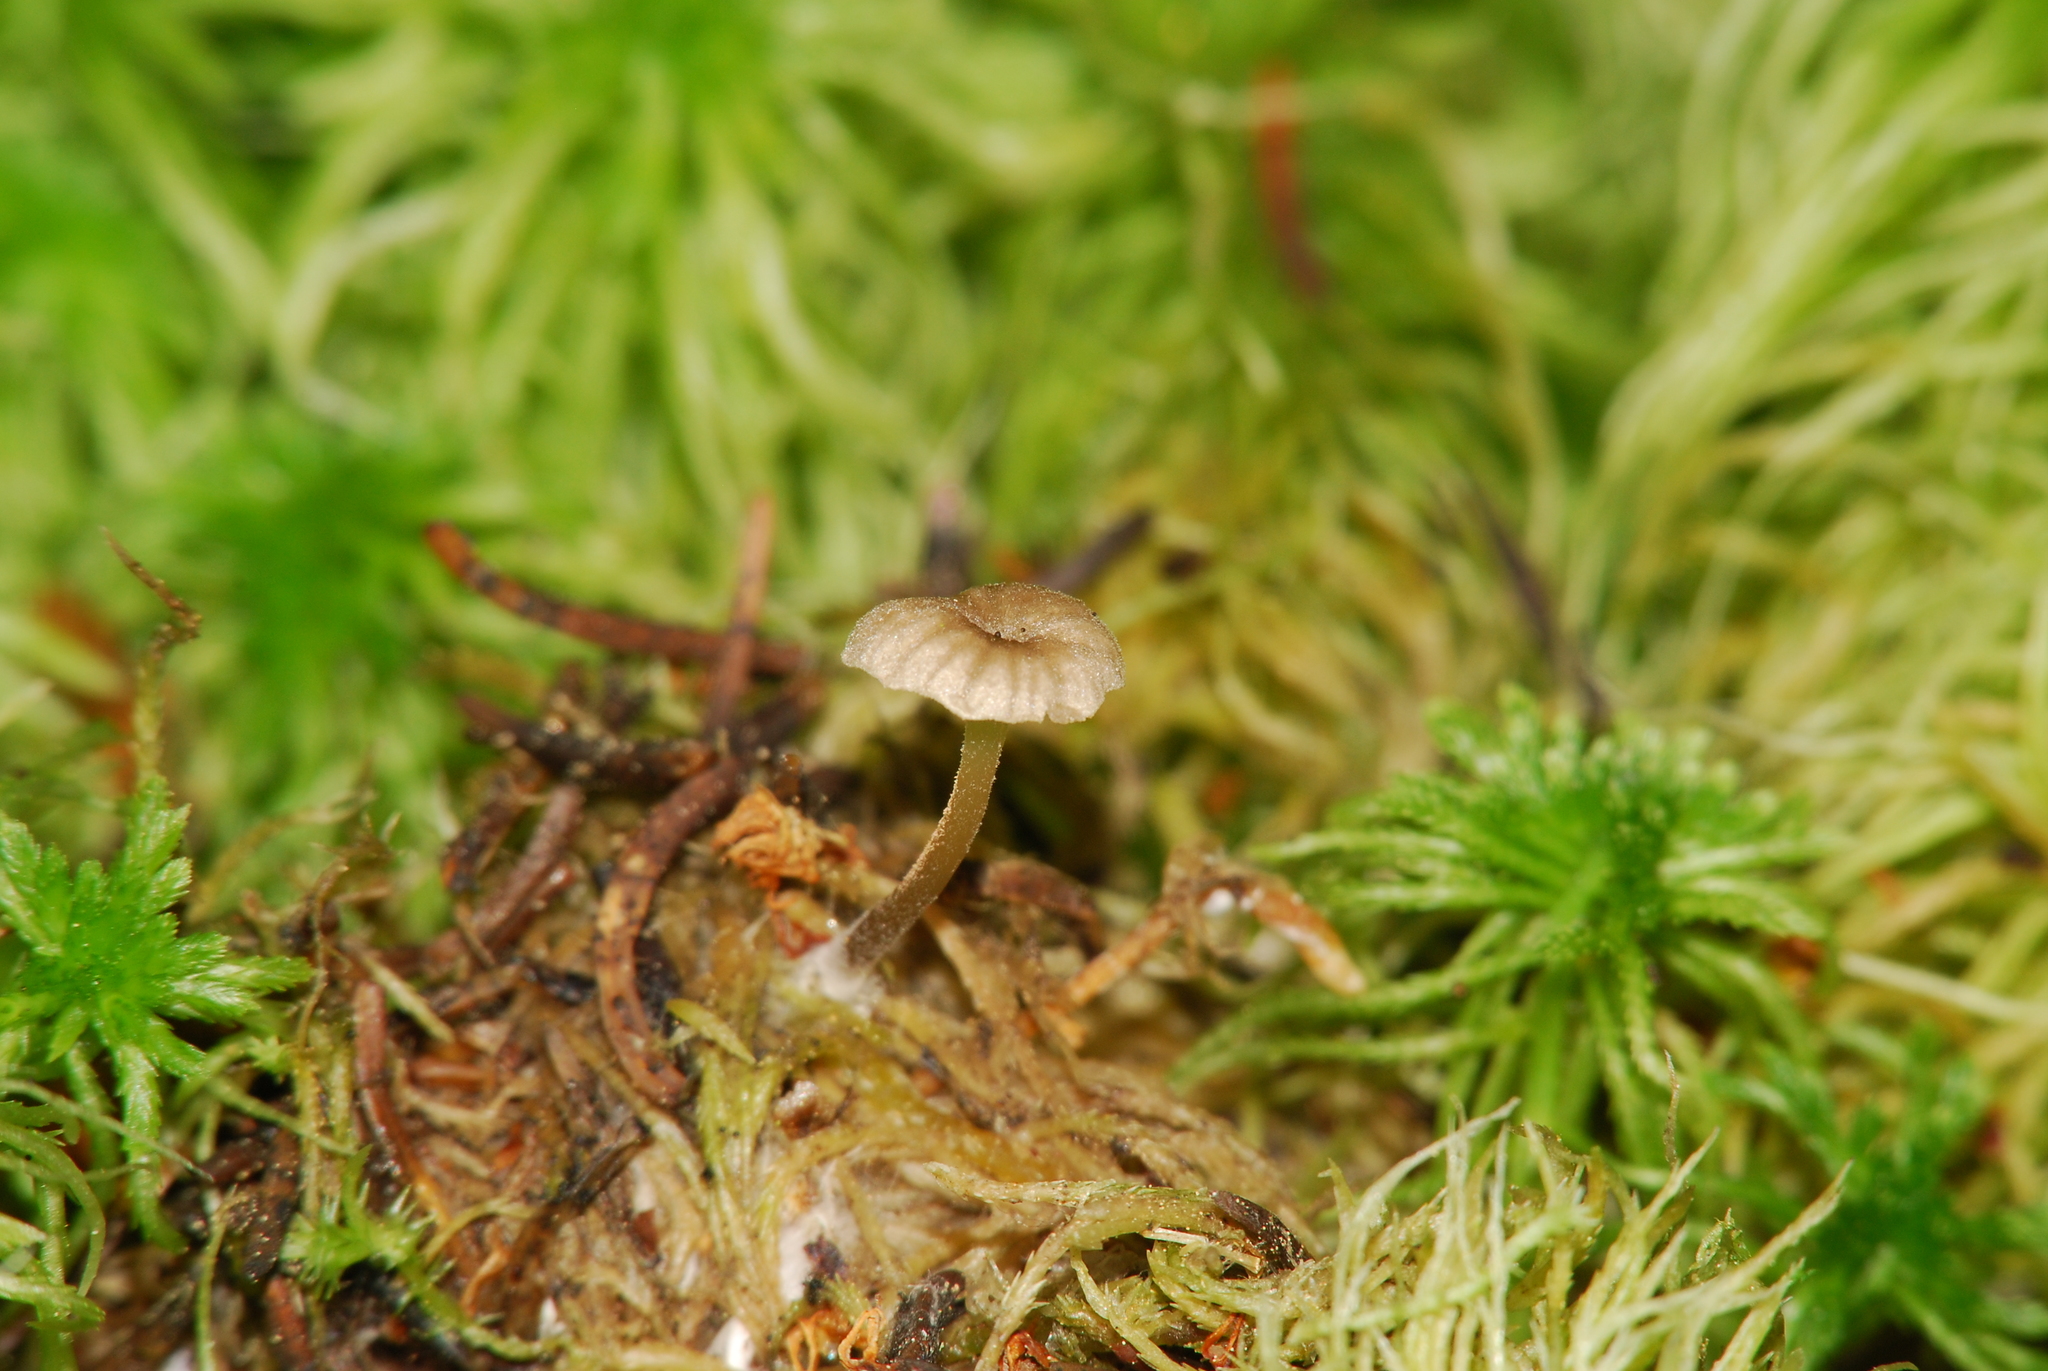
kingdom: Fungi
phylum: Basidiomycota
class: Agaricomycetes
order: Agaricales
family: Hygrophoraceae
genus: Lichenomphalia
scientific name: Lichenomphalia
